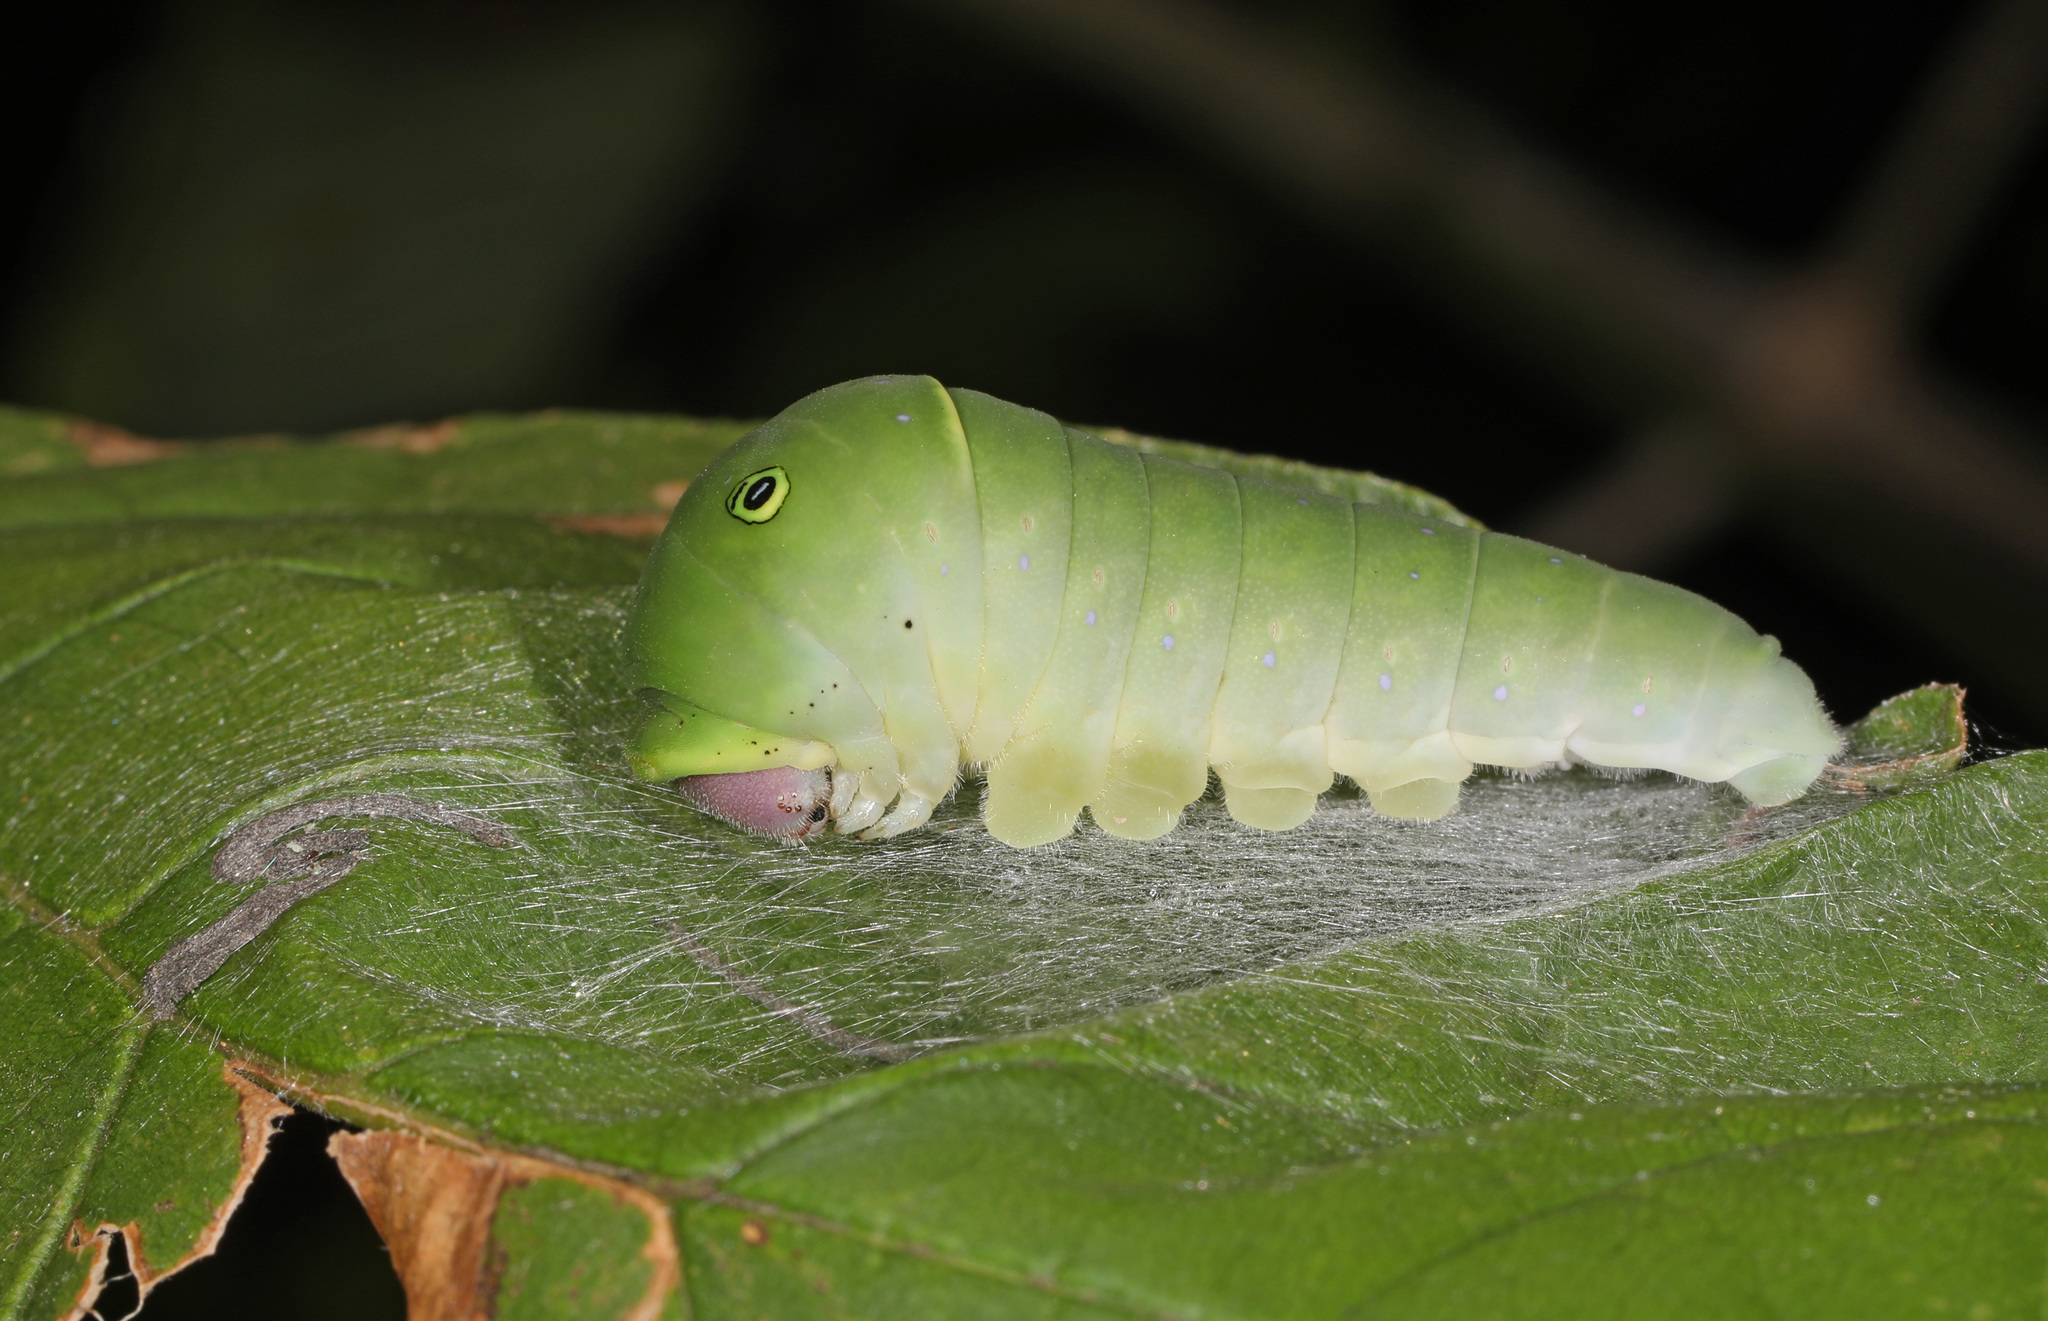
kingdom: Animalia
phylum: Arthropoda
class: Insecta
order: Lepidoptera
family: Papilionidae
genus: Papilio
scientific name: Papilio glaucus
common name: Tiger swallowtail
